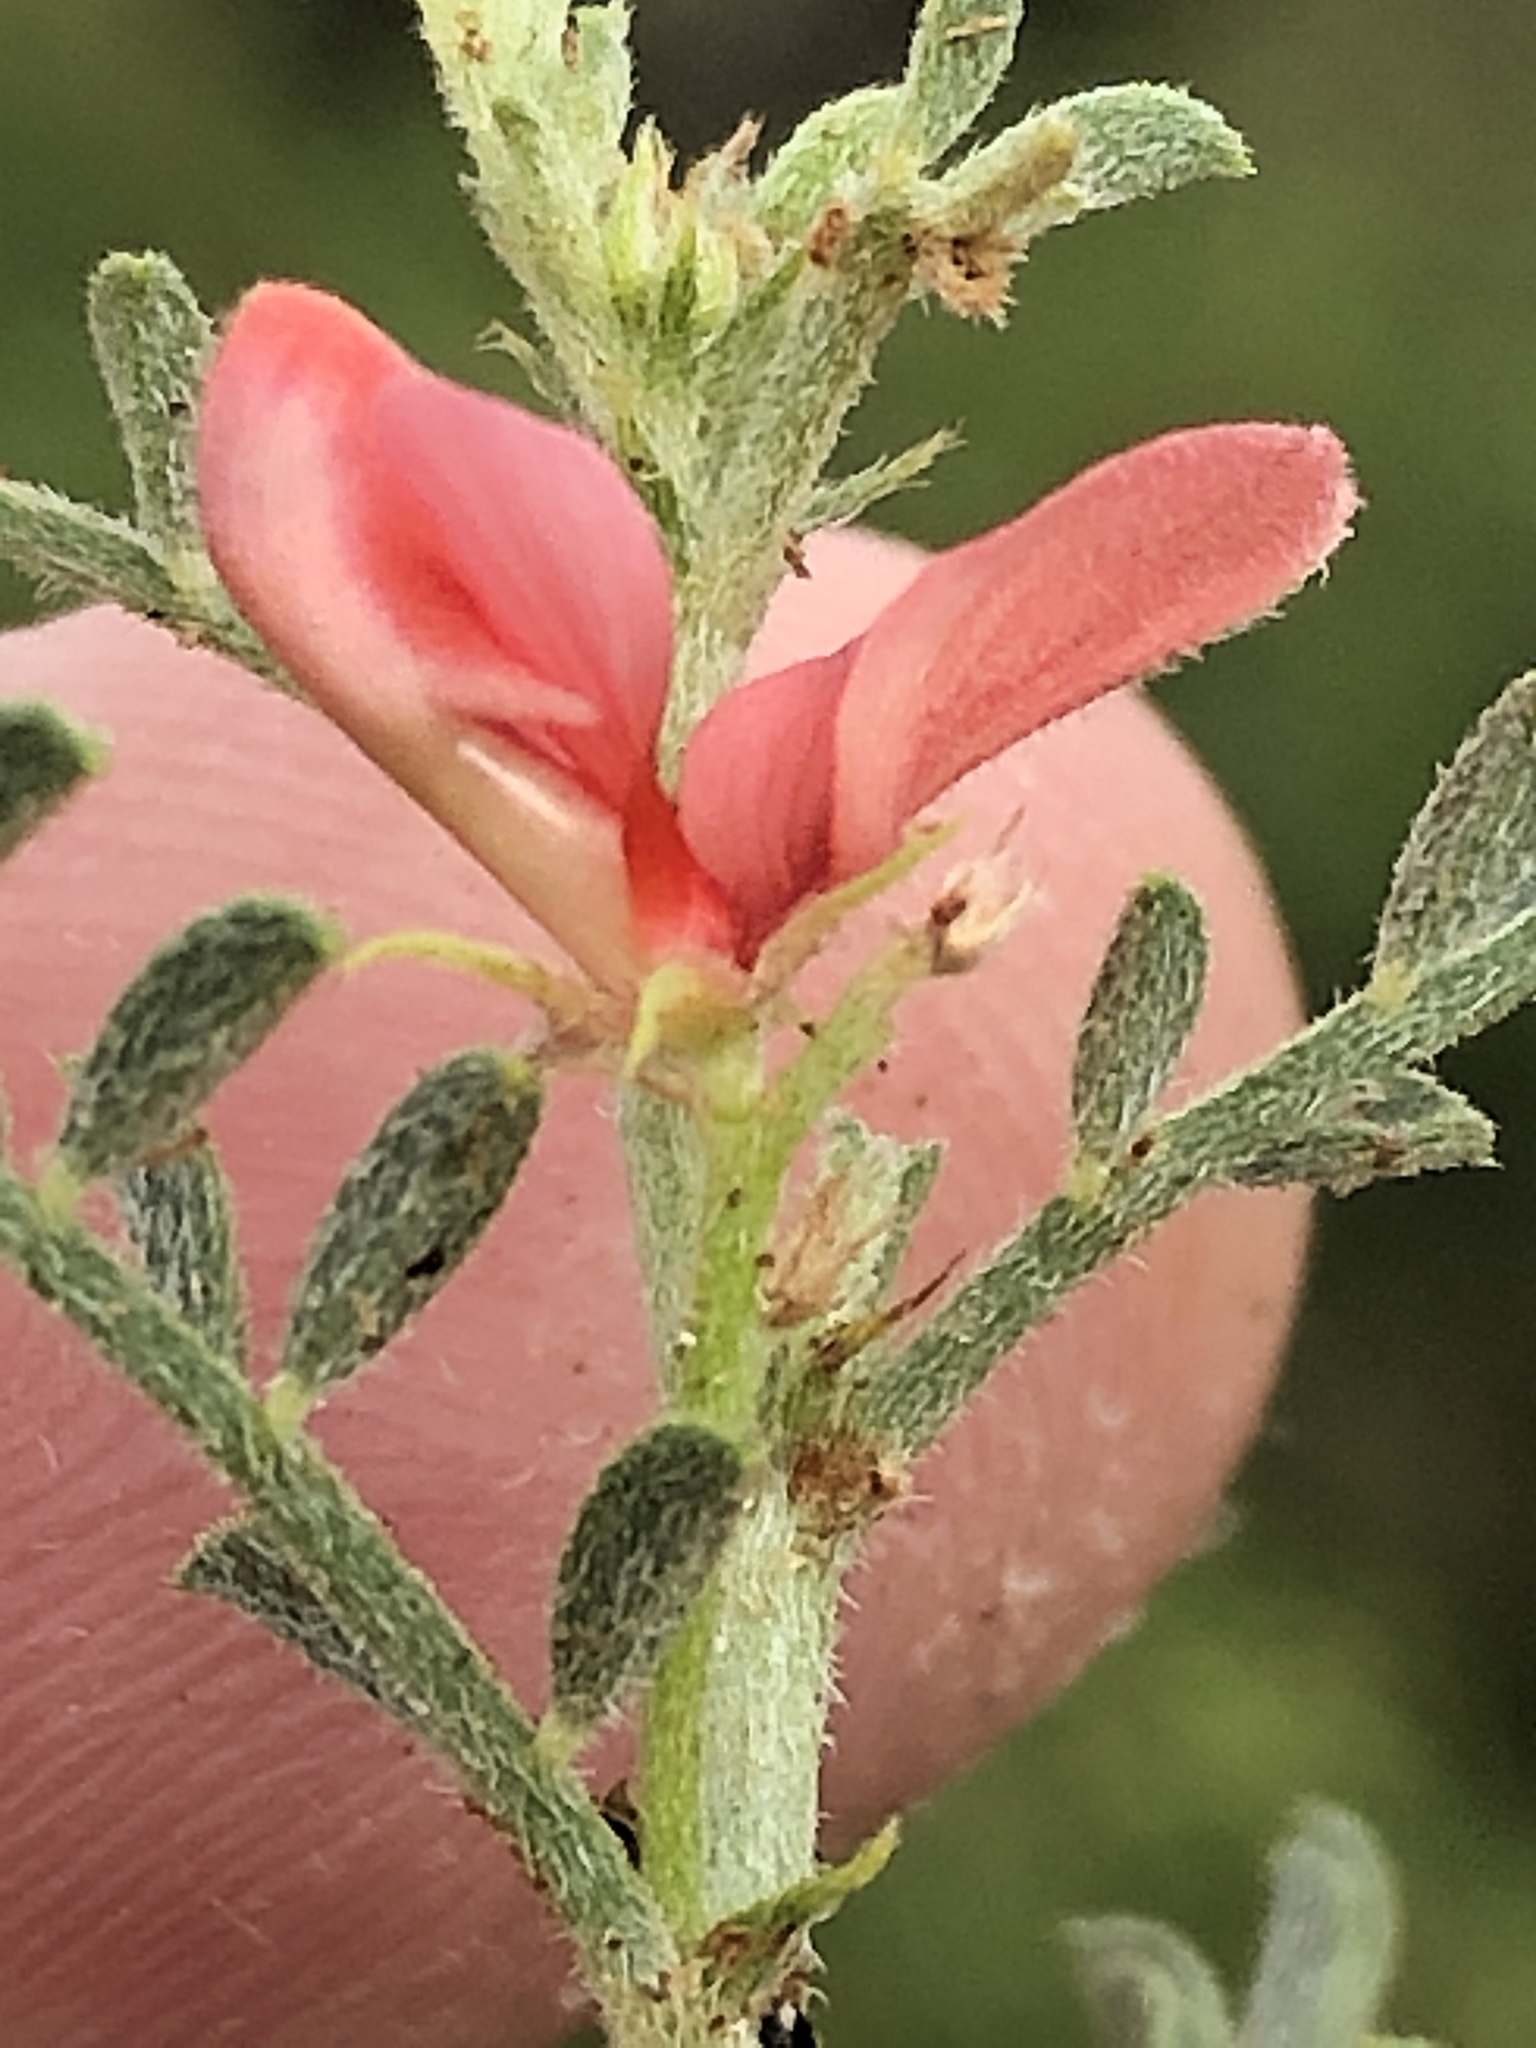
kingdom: Plantae
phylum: Tracheophyta
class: Magnoliopsida
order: Fabales
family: Fabaceae
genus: Indigofera
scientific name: Indigofera heterotricha
